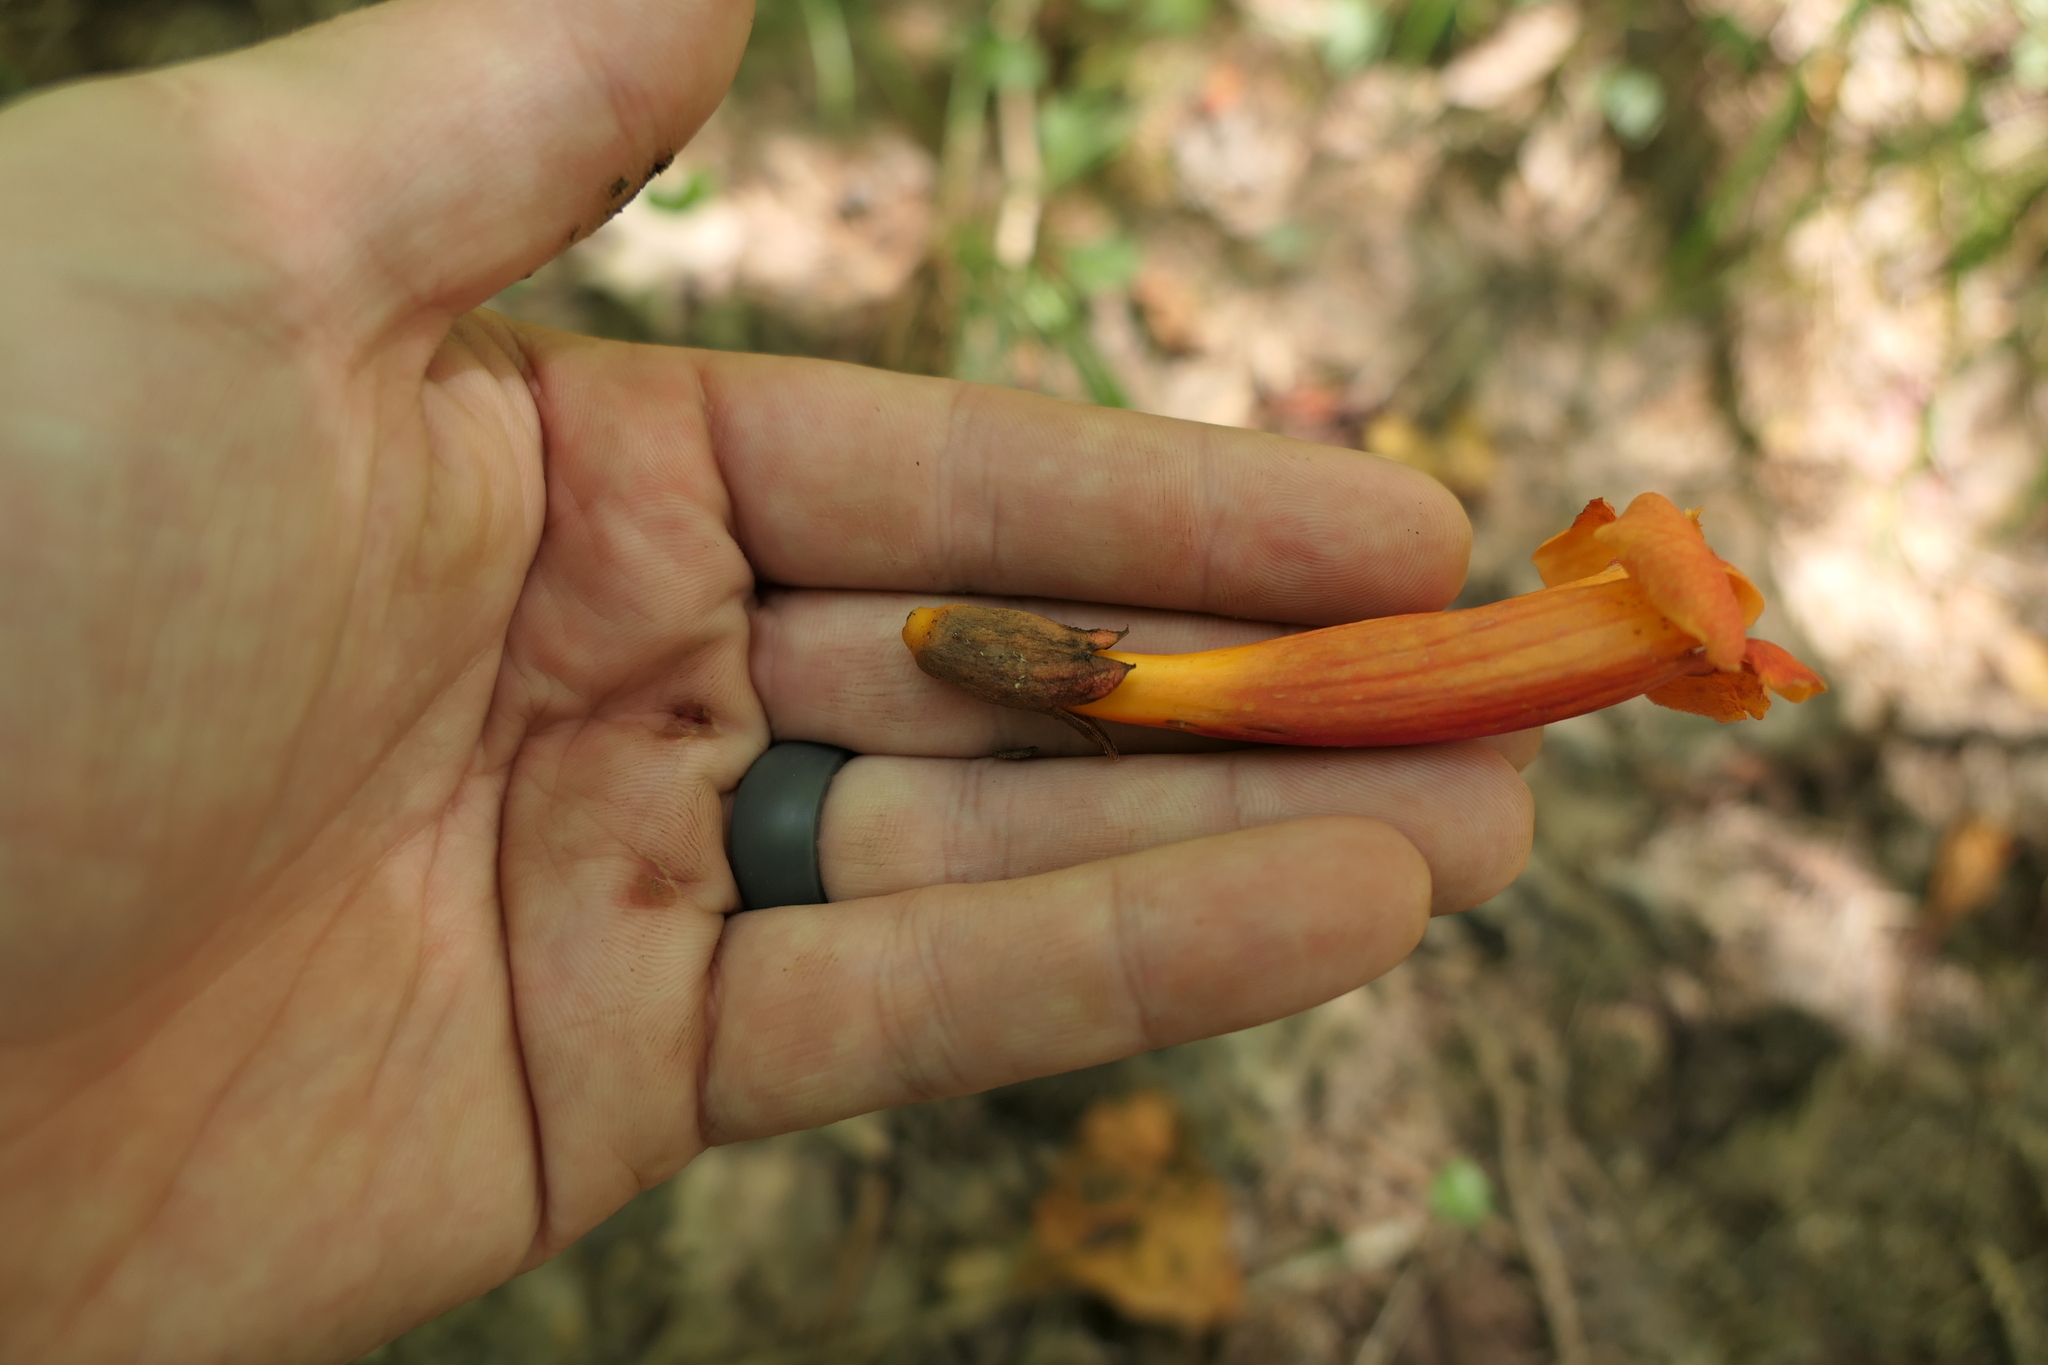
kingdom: Plantae
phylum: Tracheophyta
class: Magnoliopsida
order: Lamiales
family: Bignoniaceae
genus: Campsis
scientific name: Campsis radicans
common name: Trumpet-creeper
